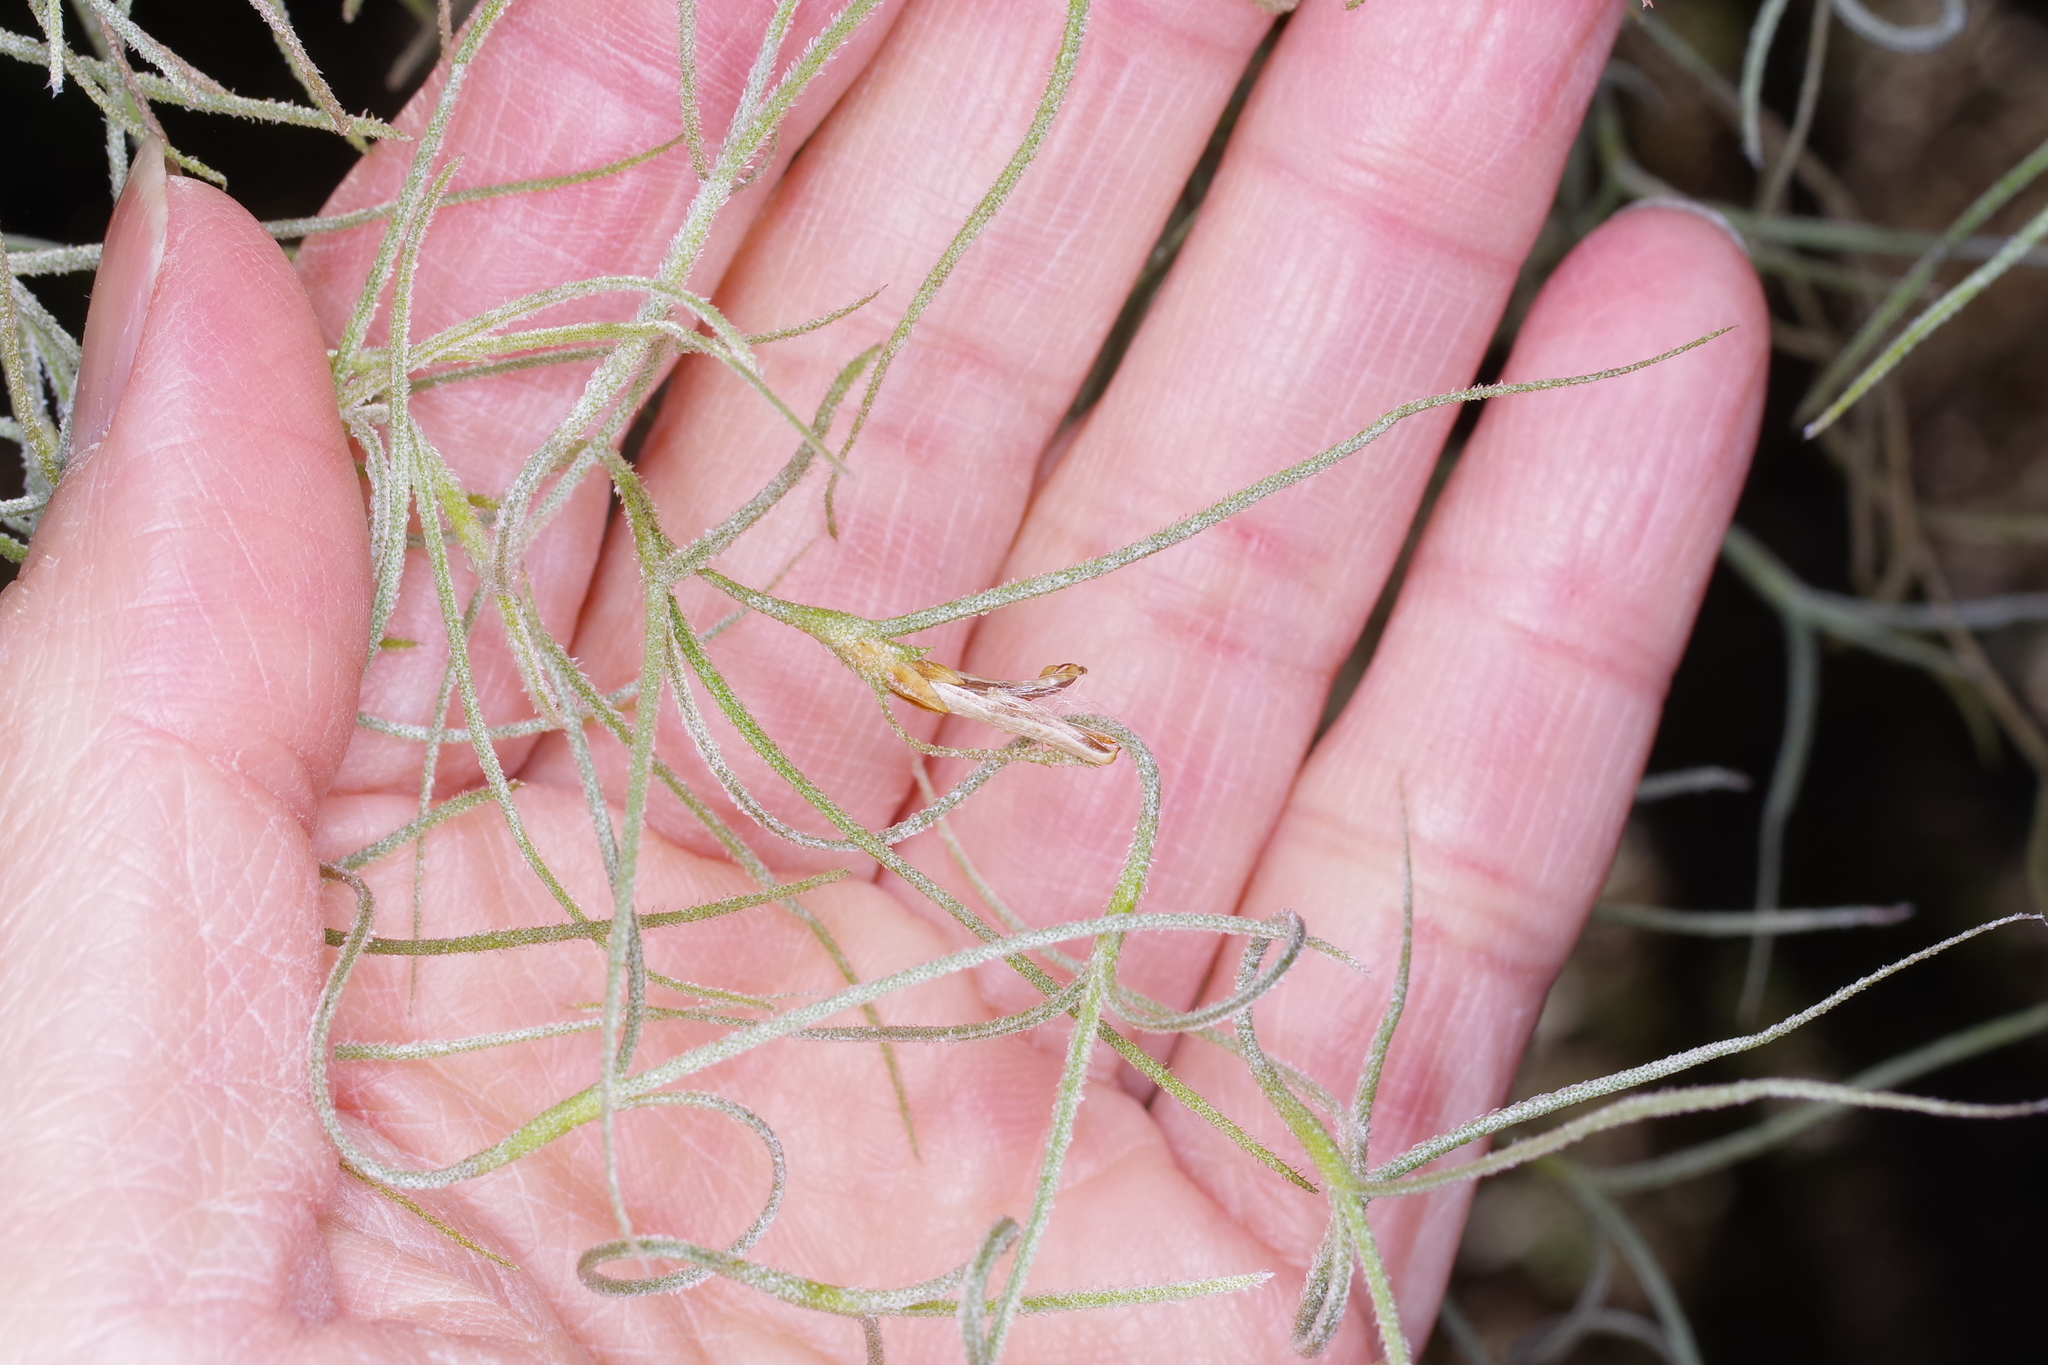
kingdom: Plantae
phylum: Tracheophyta
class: Liliopsida
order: Poales
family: Bromeliaceae
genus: Tillandsia
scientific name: Tillandsia usneoides
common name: Spanish moss
